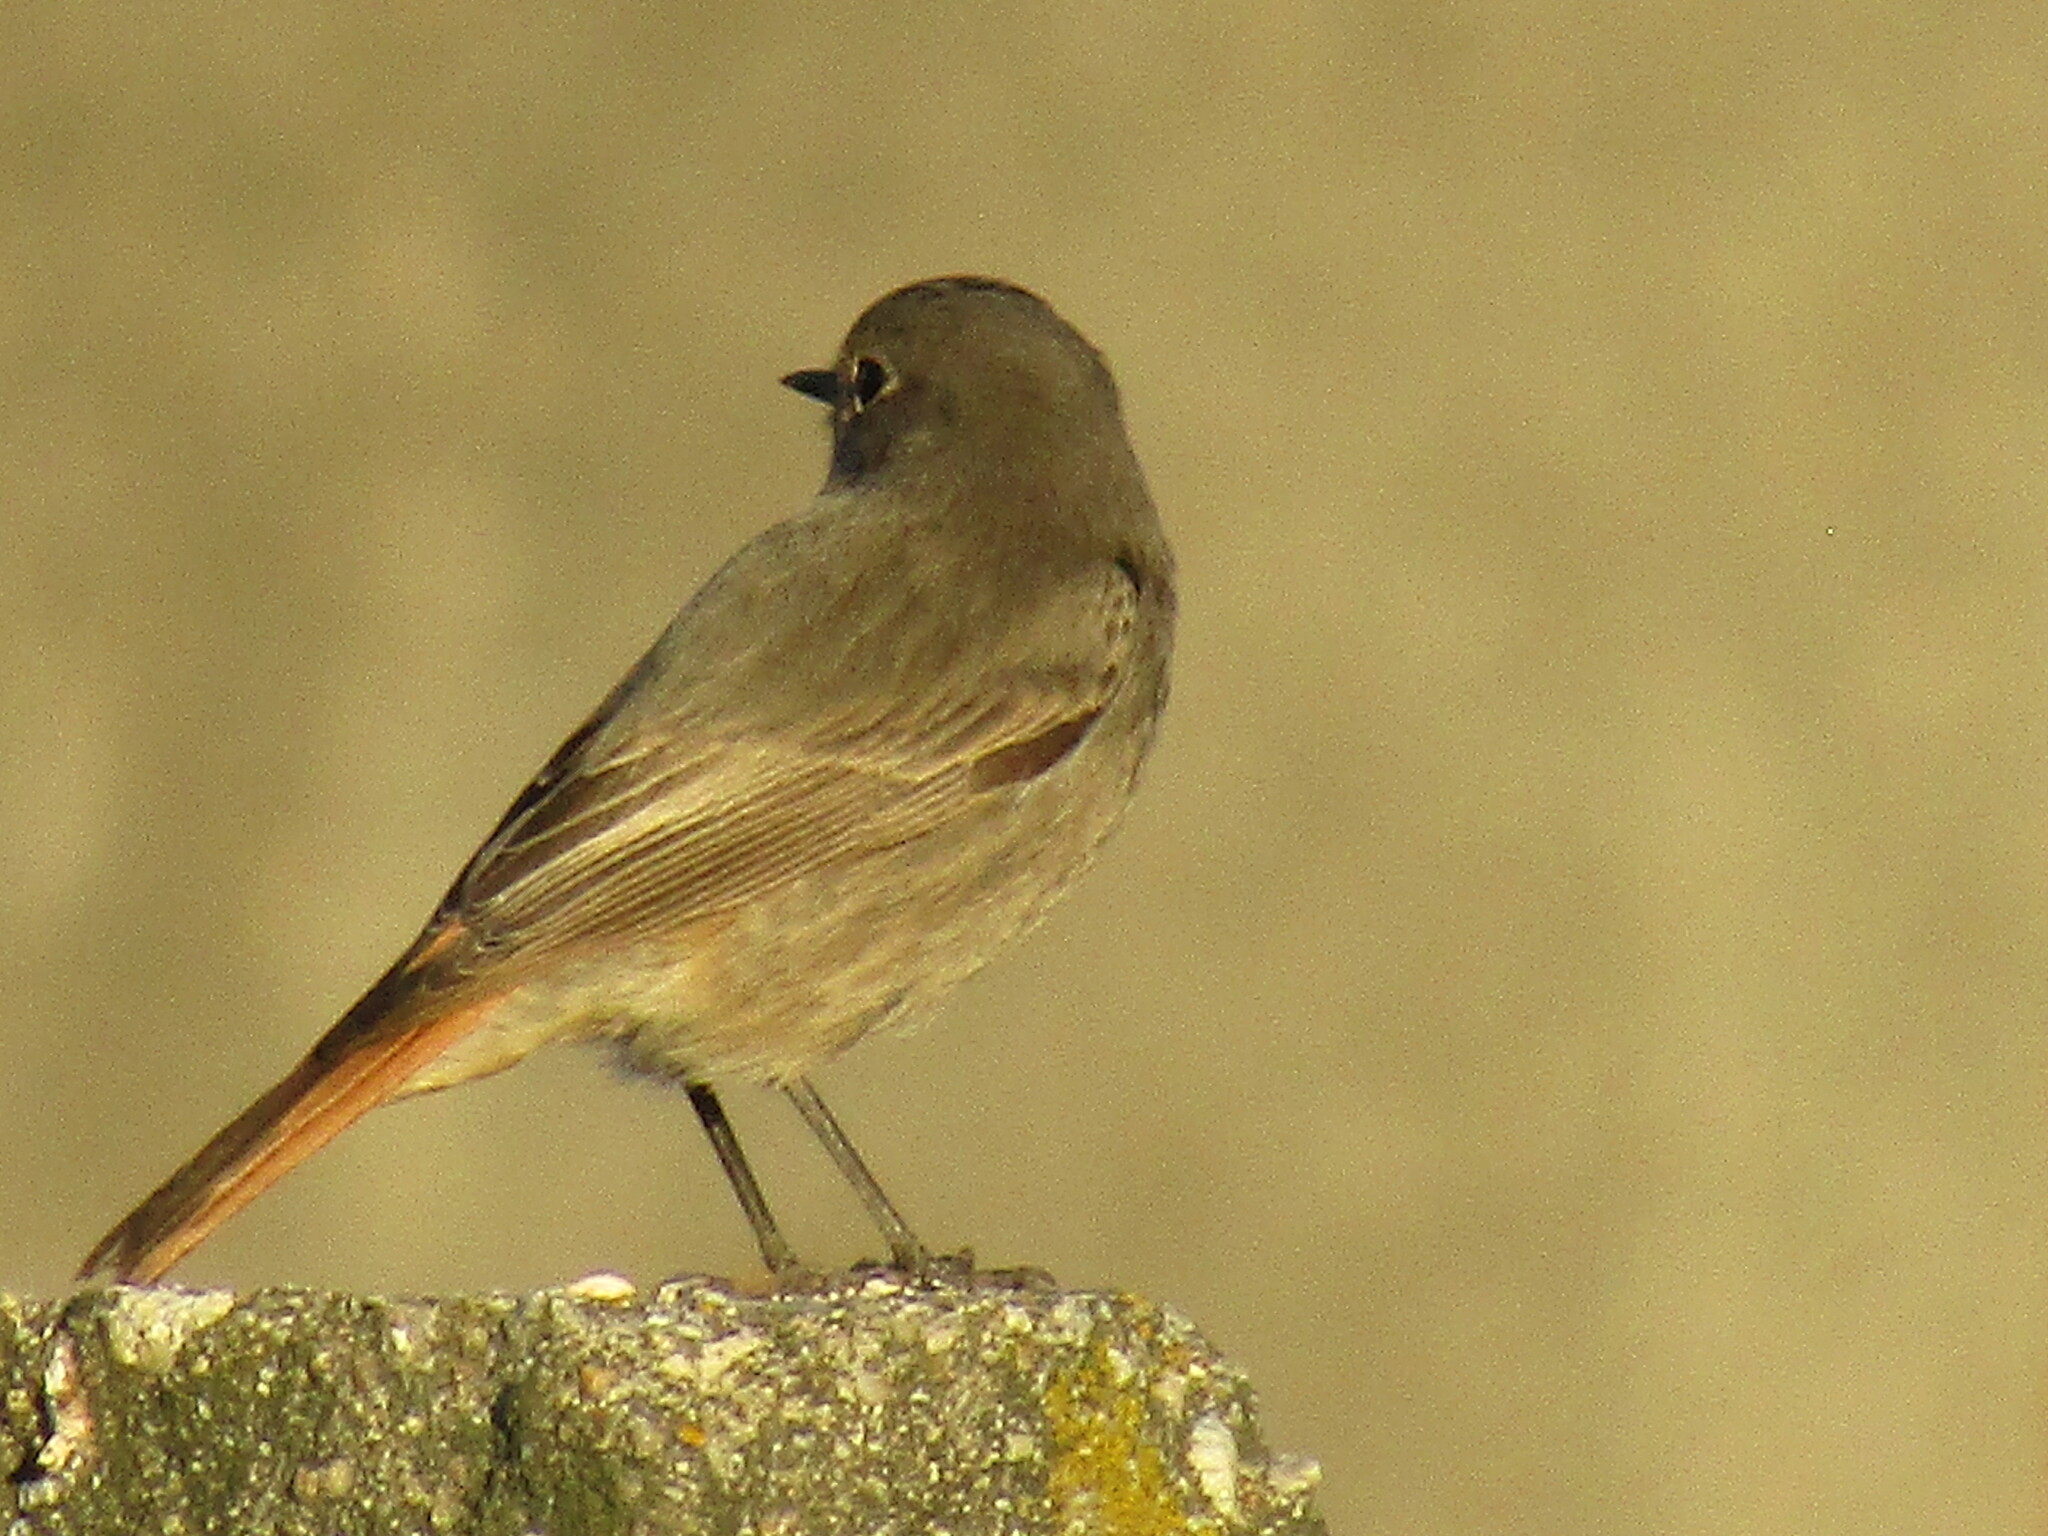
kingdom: Animalia
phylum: Chordata
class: Aves
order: Passeriformes
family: Muscicapidae
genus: Phoenicurus
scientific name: Phoenicurus ochruros
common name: Black redstart
